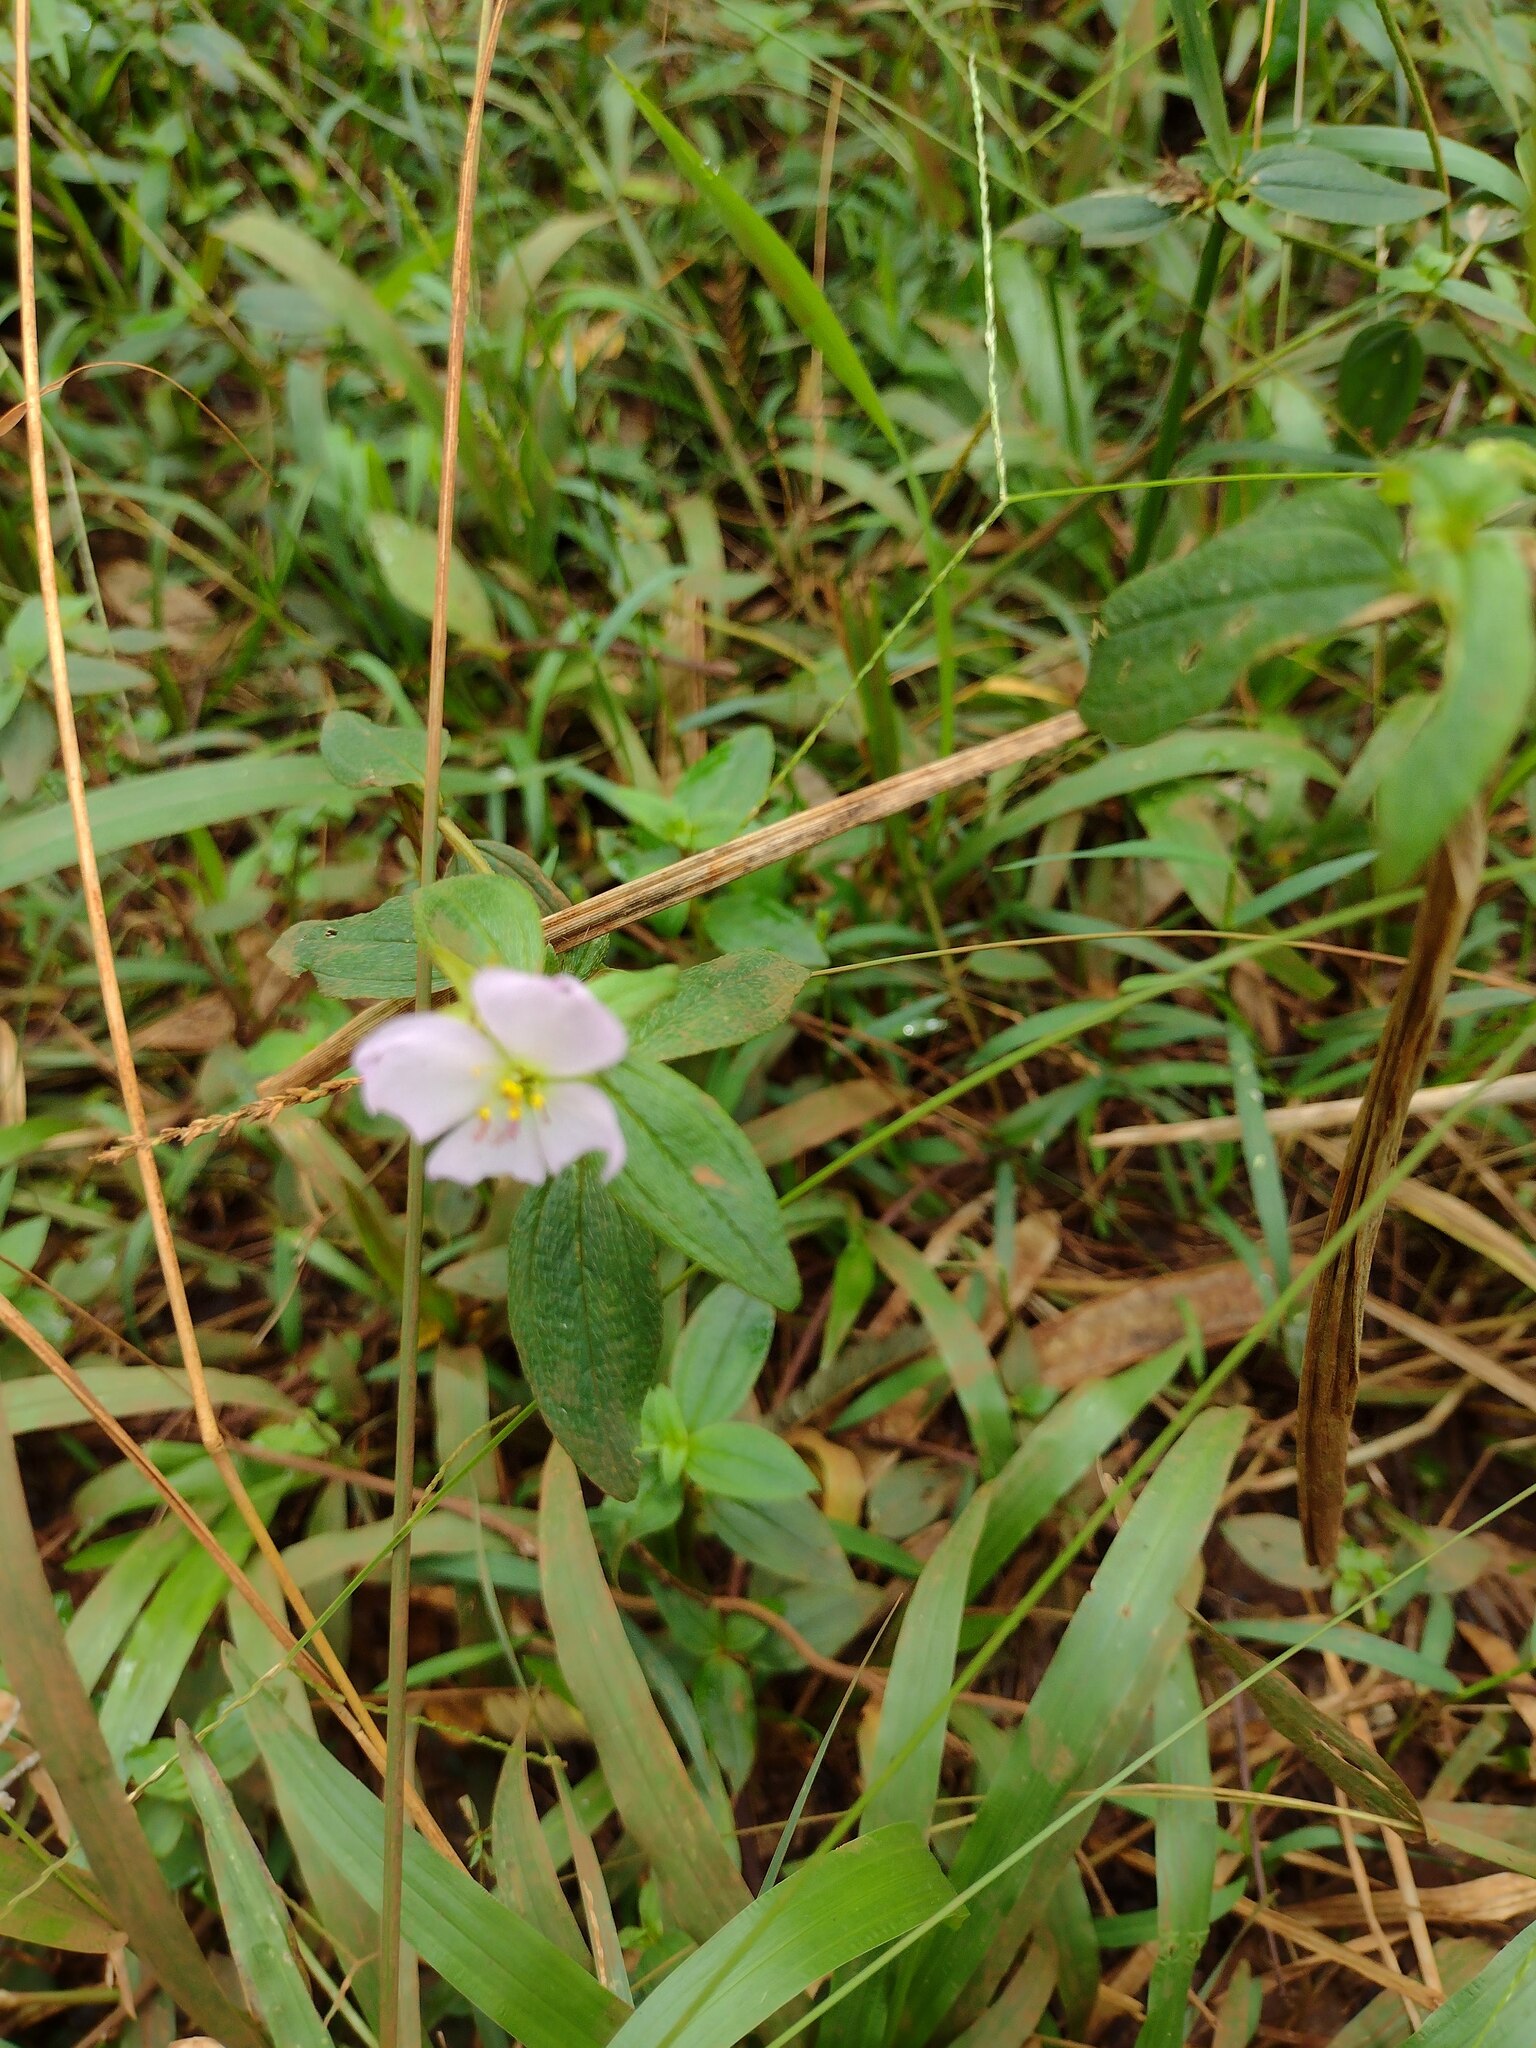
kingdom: Plantae
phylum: Tracheophyta
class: Magnoliopsida
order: Myrtales
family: Melastomataceae
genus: Pterolepis
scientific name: Pterolepis glomerata
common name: False meadowbeauty
